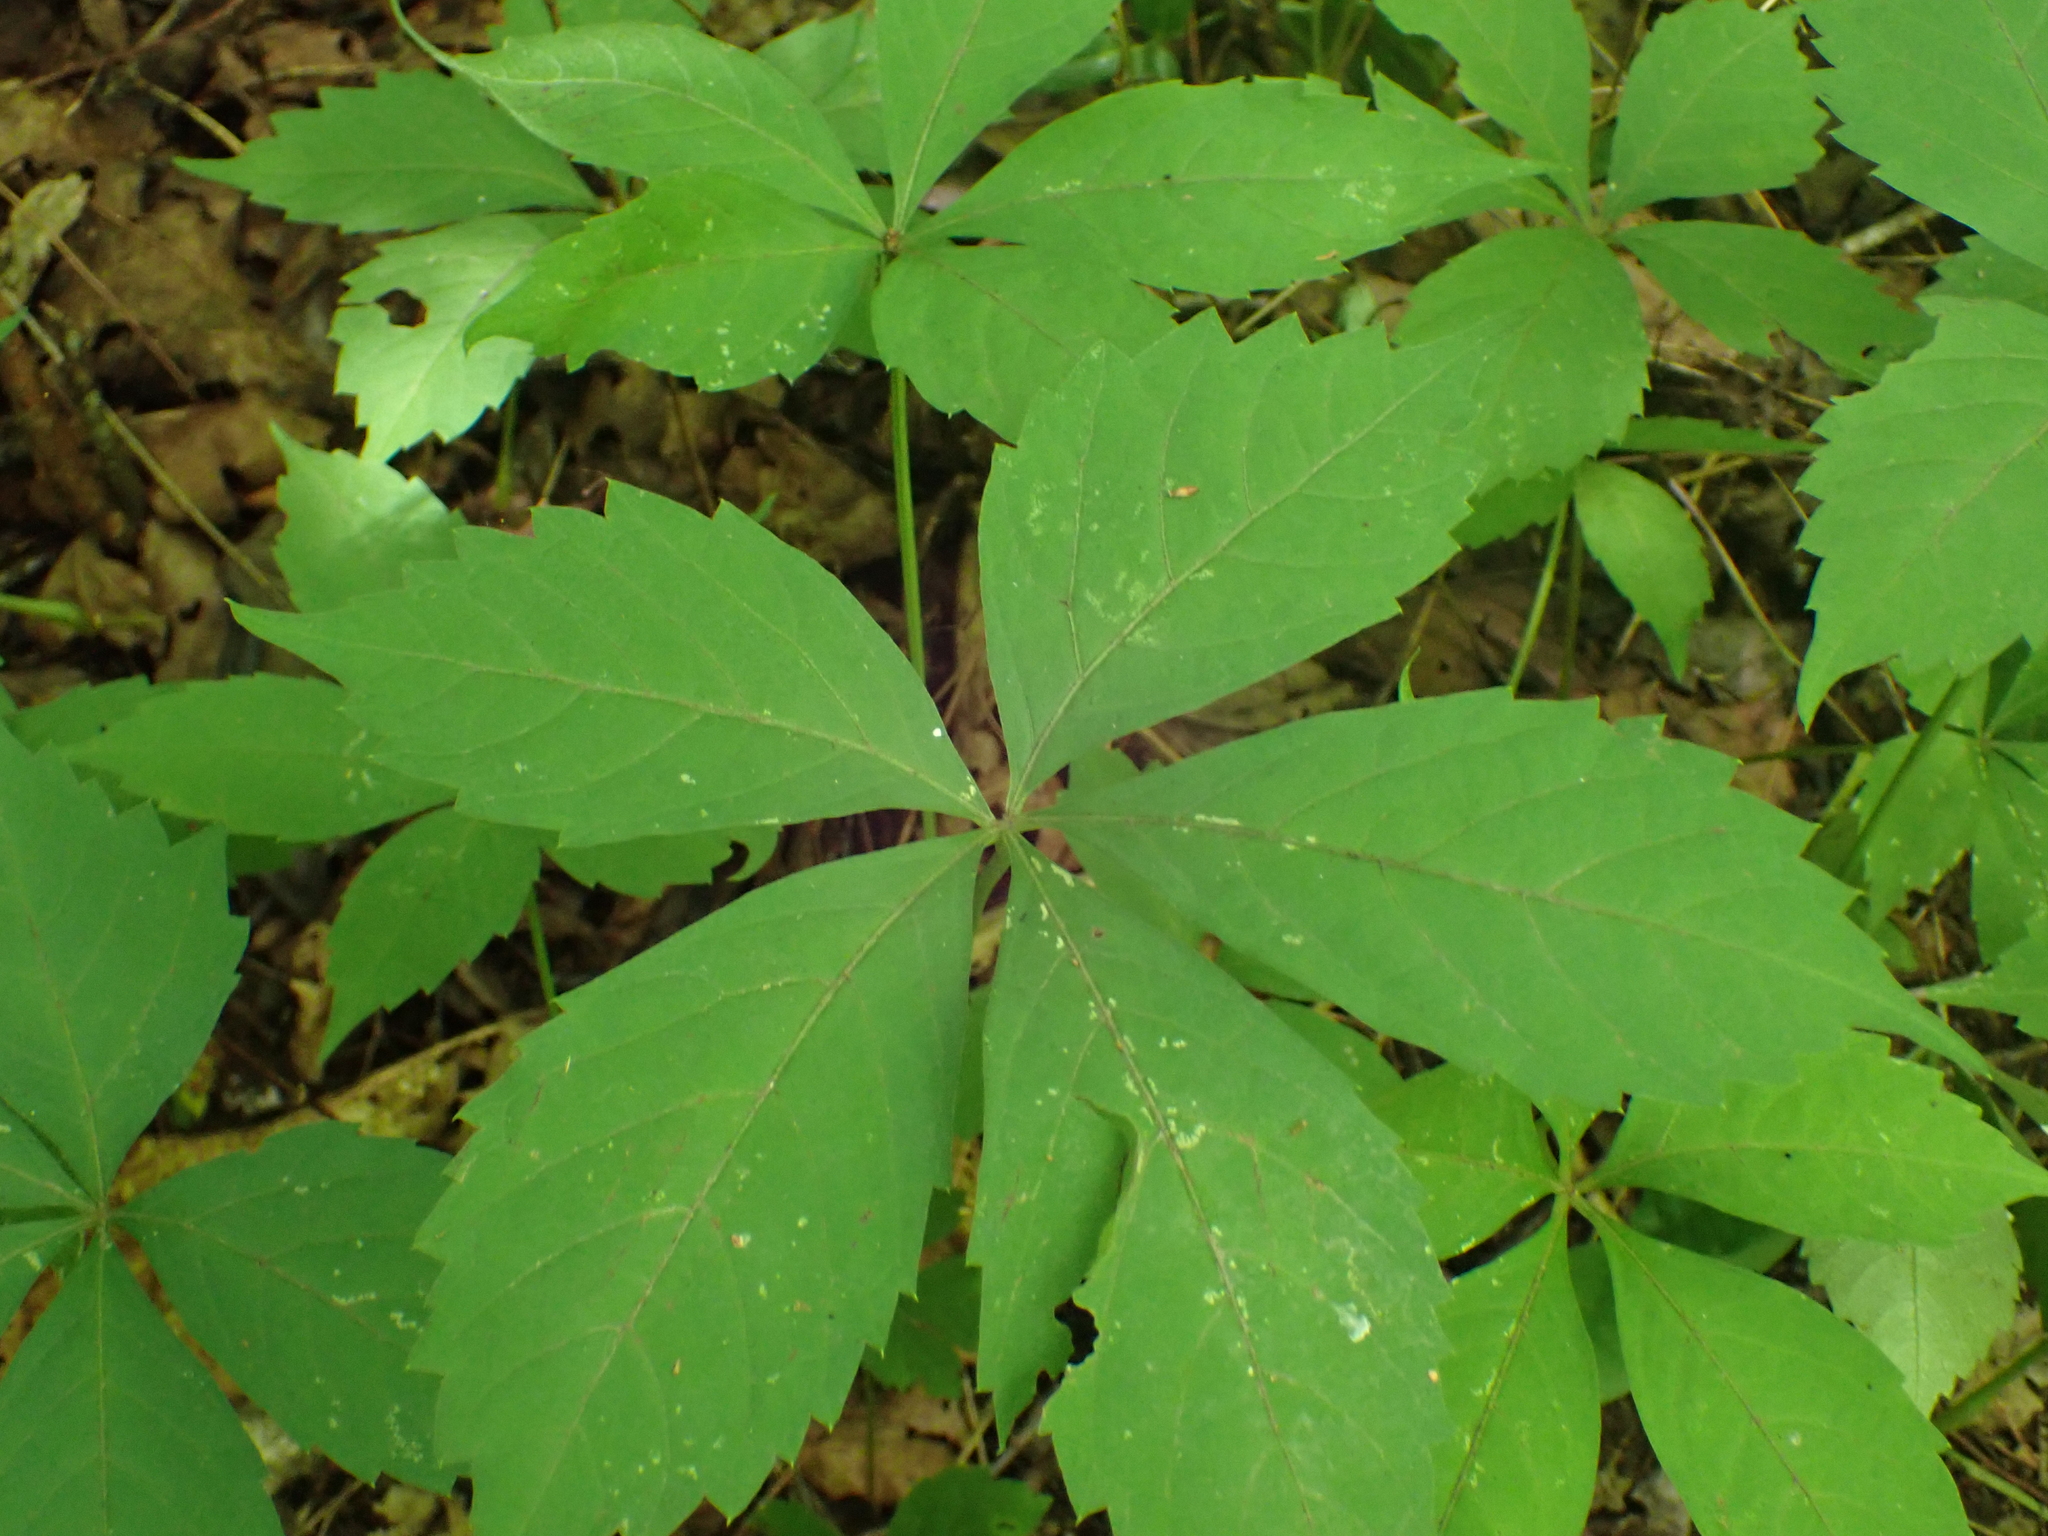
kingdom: Plantae
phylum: Tracheophyta
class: Magnoliopsida
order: Vitales
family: Vitaceae
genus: Parthenocissus
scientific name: Parthenocissus quinquefolia
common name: Virginia-creeper
